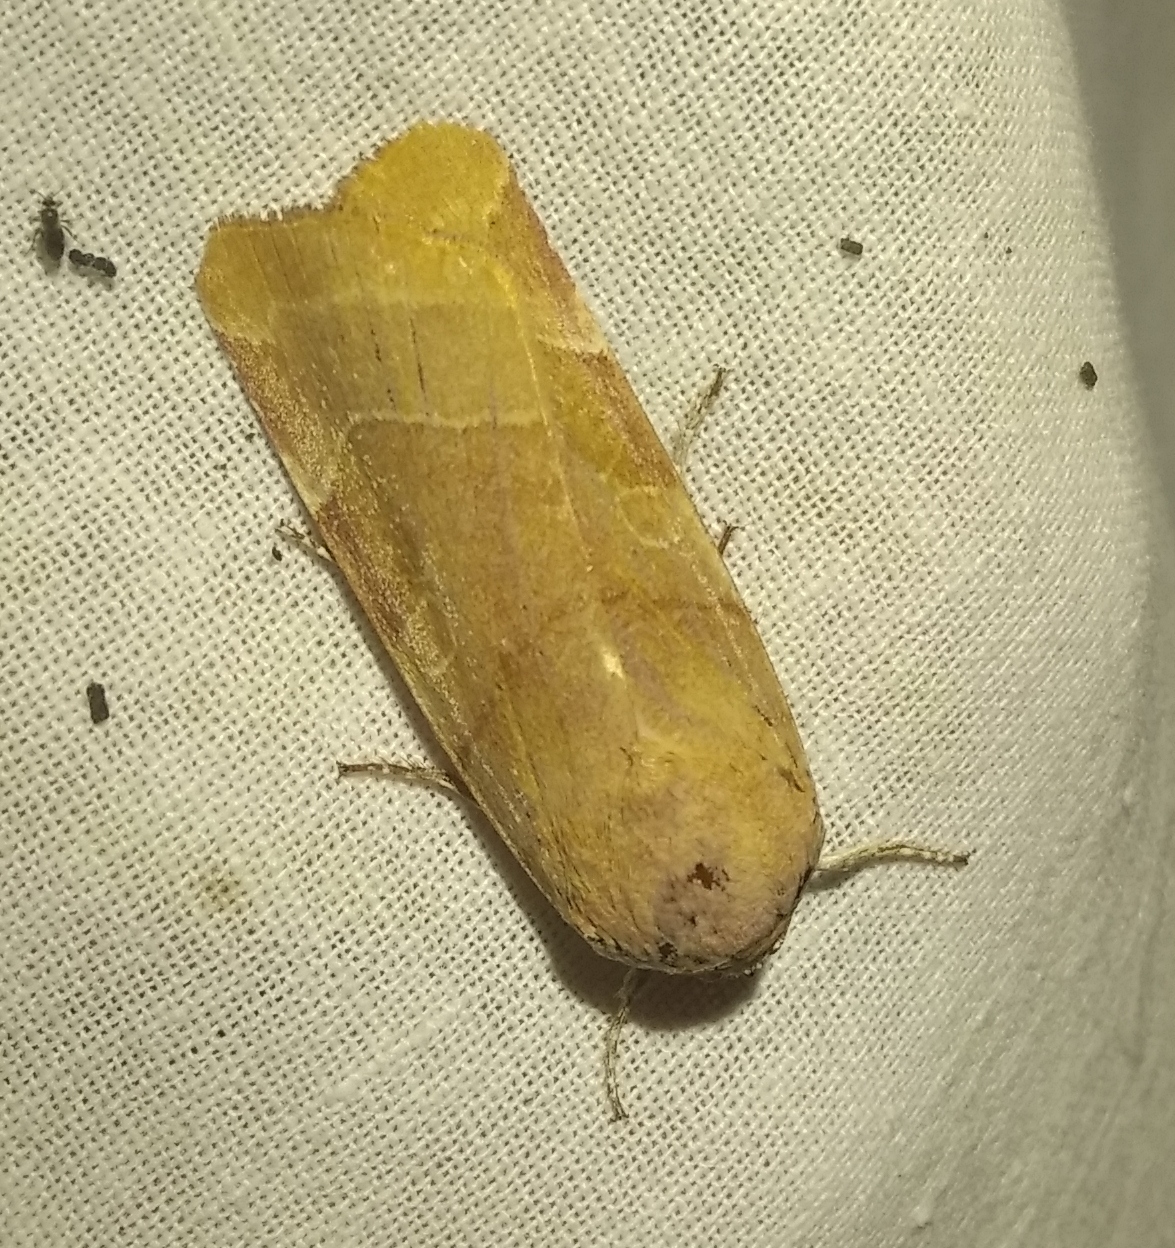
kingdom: Animalia
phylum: Arthropoda
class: Insecta
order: Lepidoptera
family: Noctuidae
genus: Noctua
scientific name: Noctua fimbriata
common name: Broad-bordered yellow underwing
